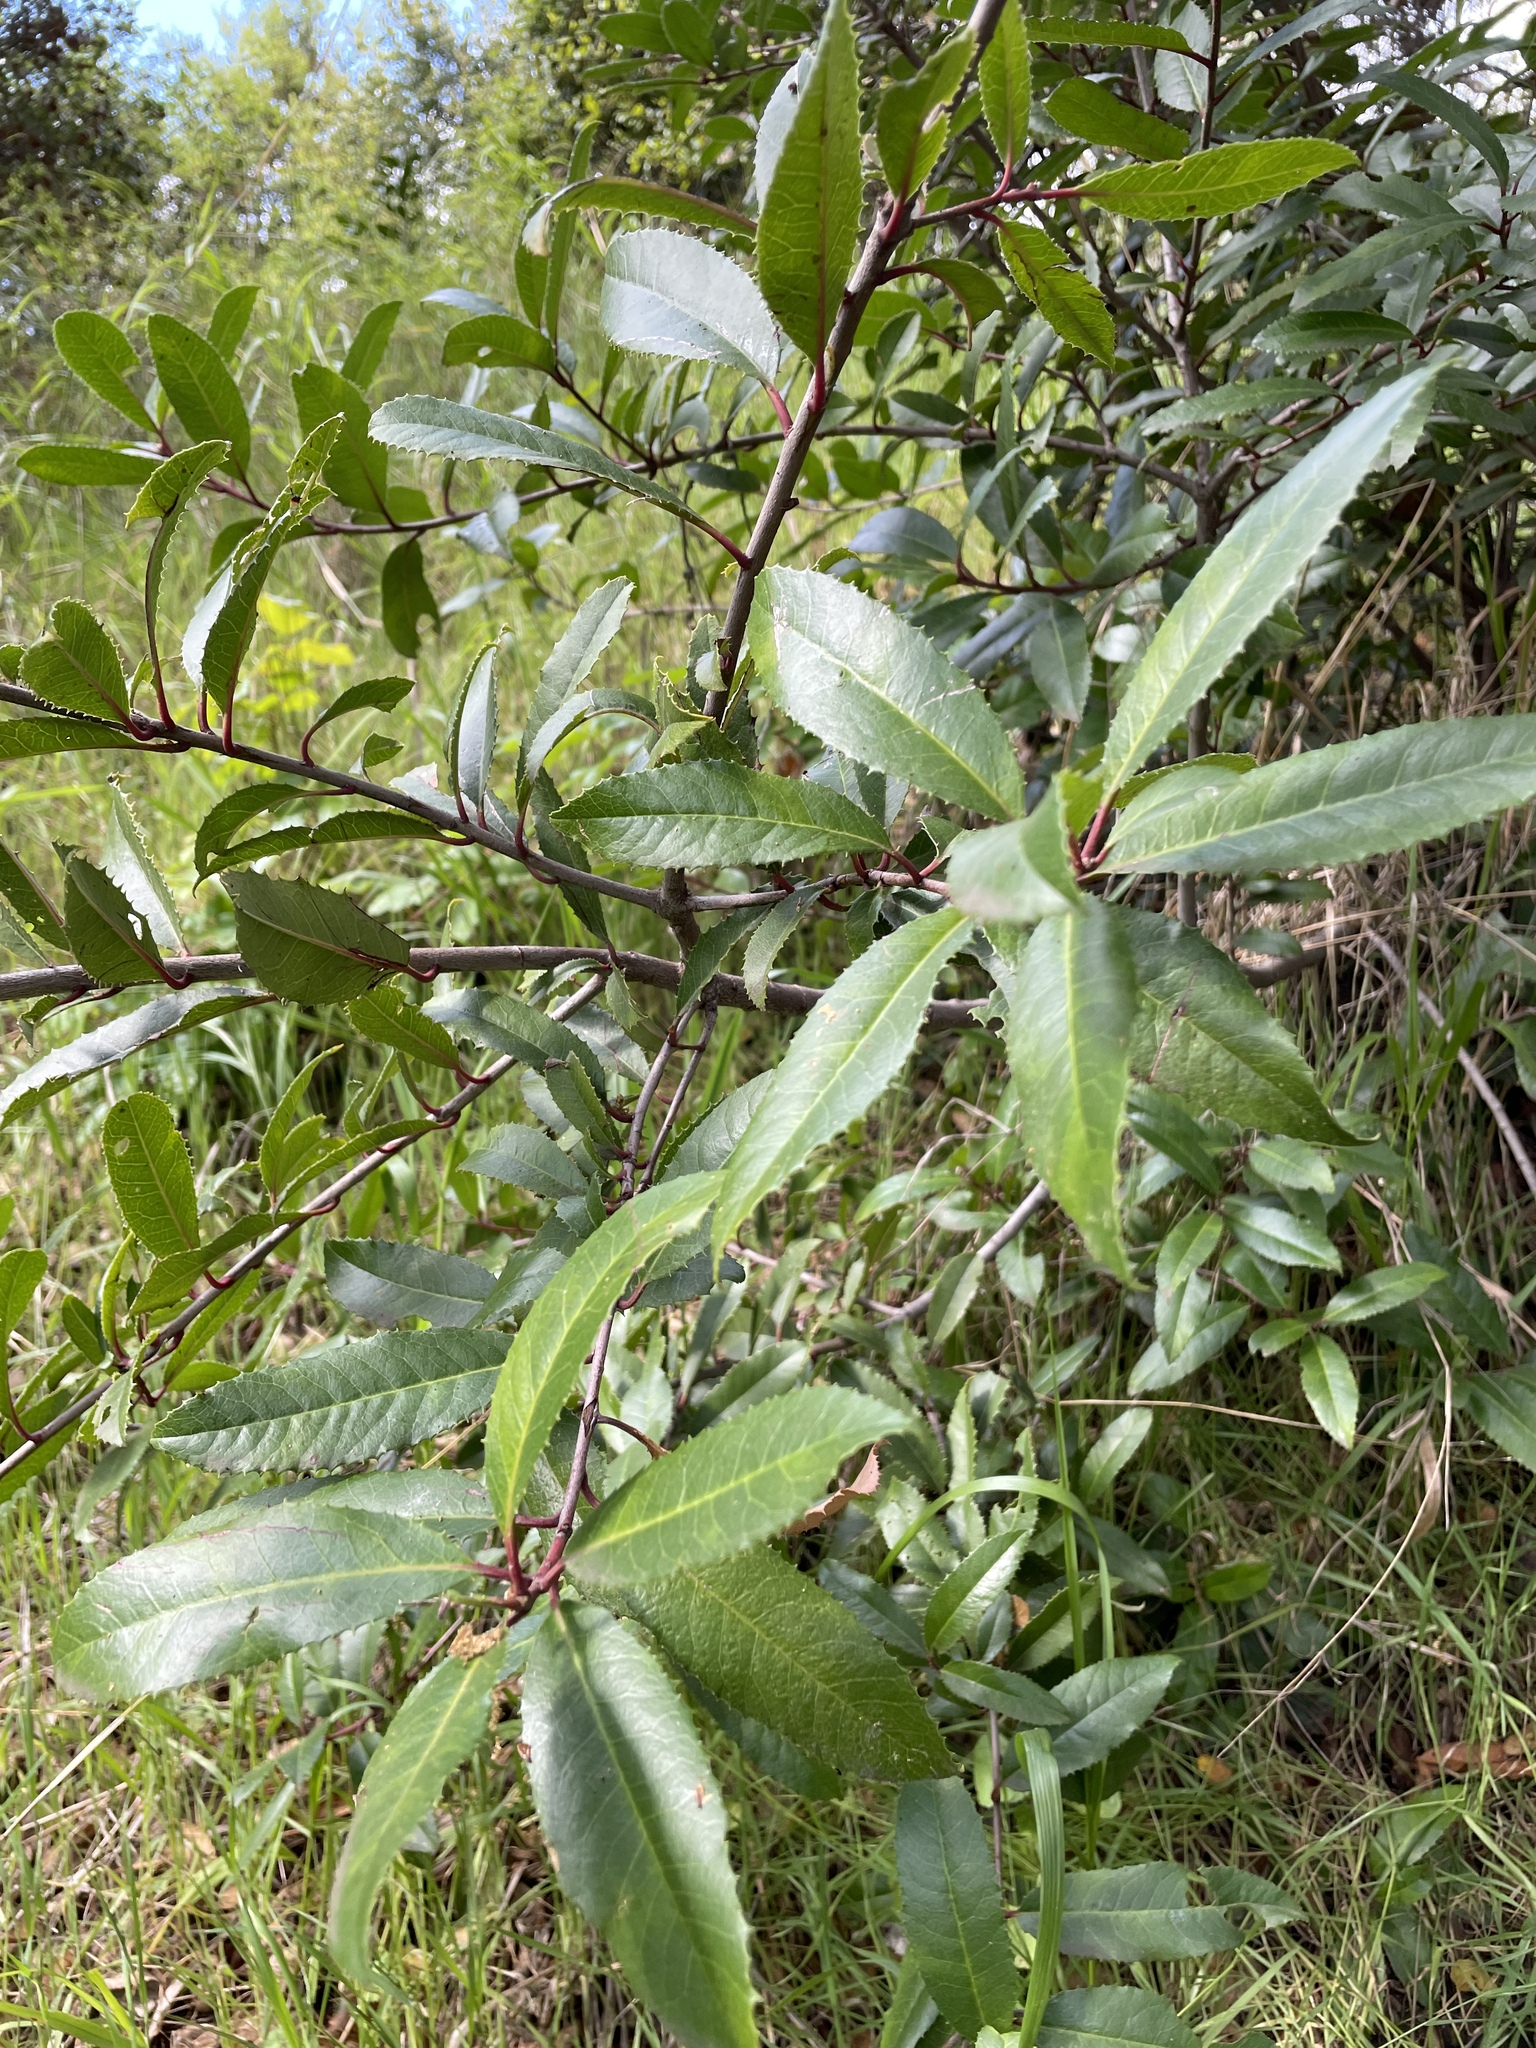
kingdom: Plantae
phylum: Tracheophyta
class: Magnoliopsida
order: Rosales
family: Rosaceae
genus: Heteromeles
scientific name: Heteromeles arbutifolia
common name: California-holly
